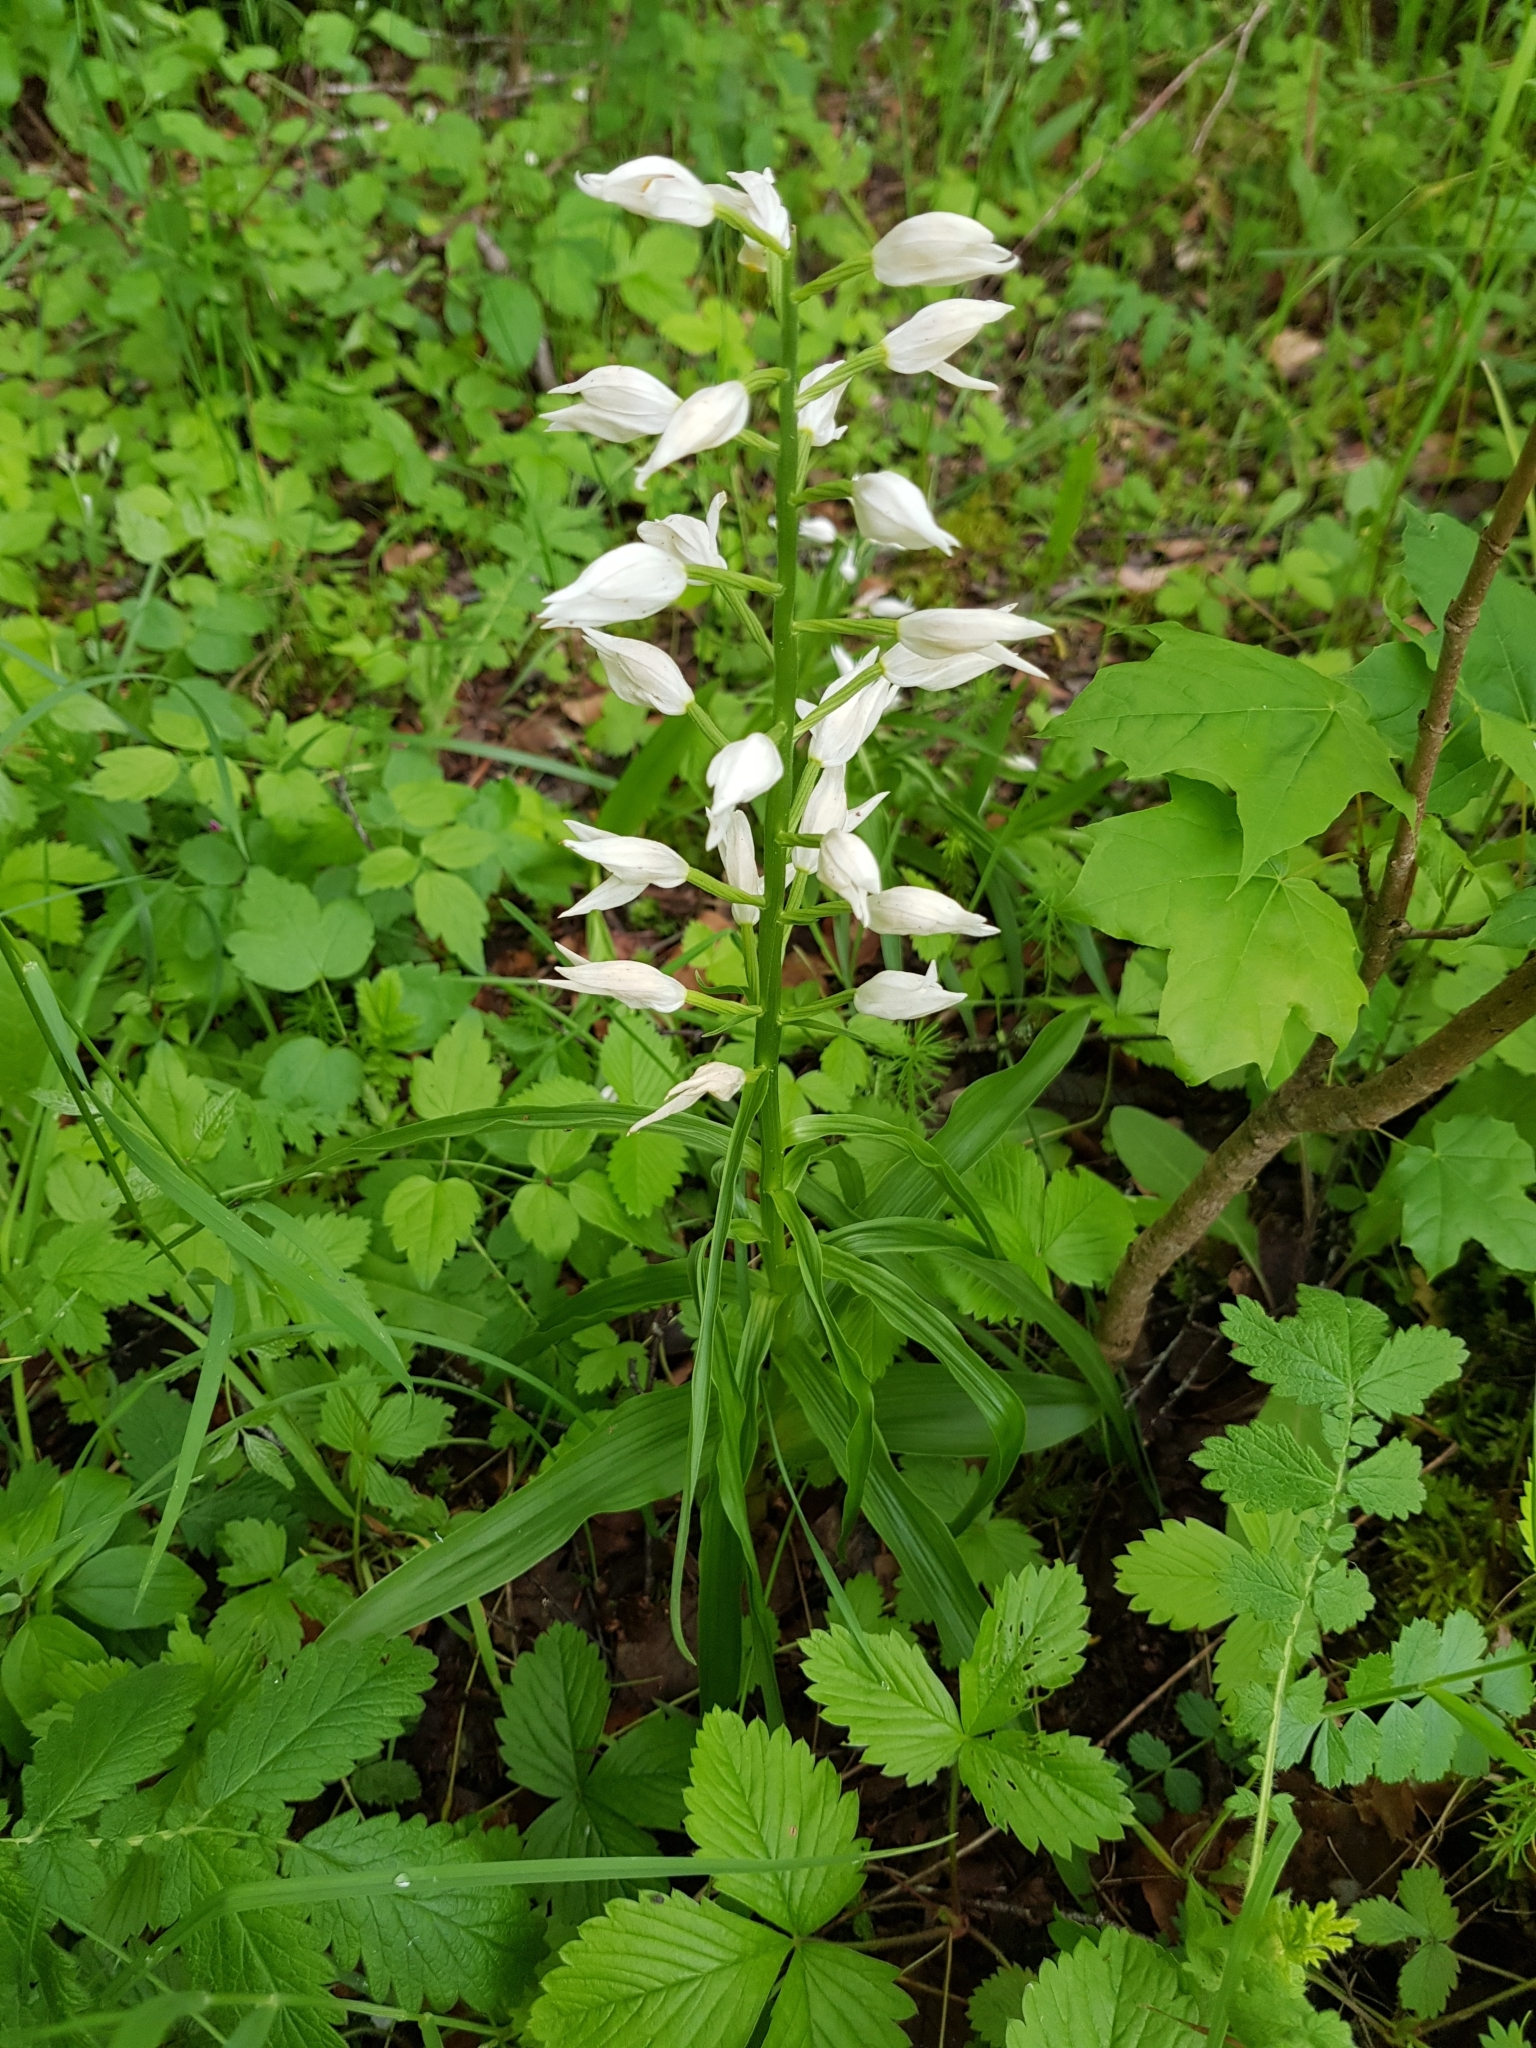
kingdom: Plantae
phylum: Tracheophyta
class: Liliopsida
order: Asparagales
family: Orchidaceae
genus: Cephalanthera
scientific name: Cephalanthera longifolia
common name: Narrow-leaved helleborine
